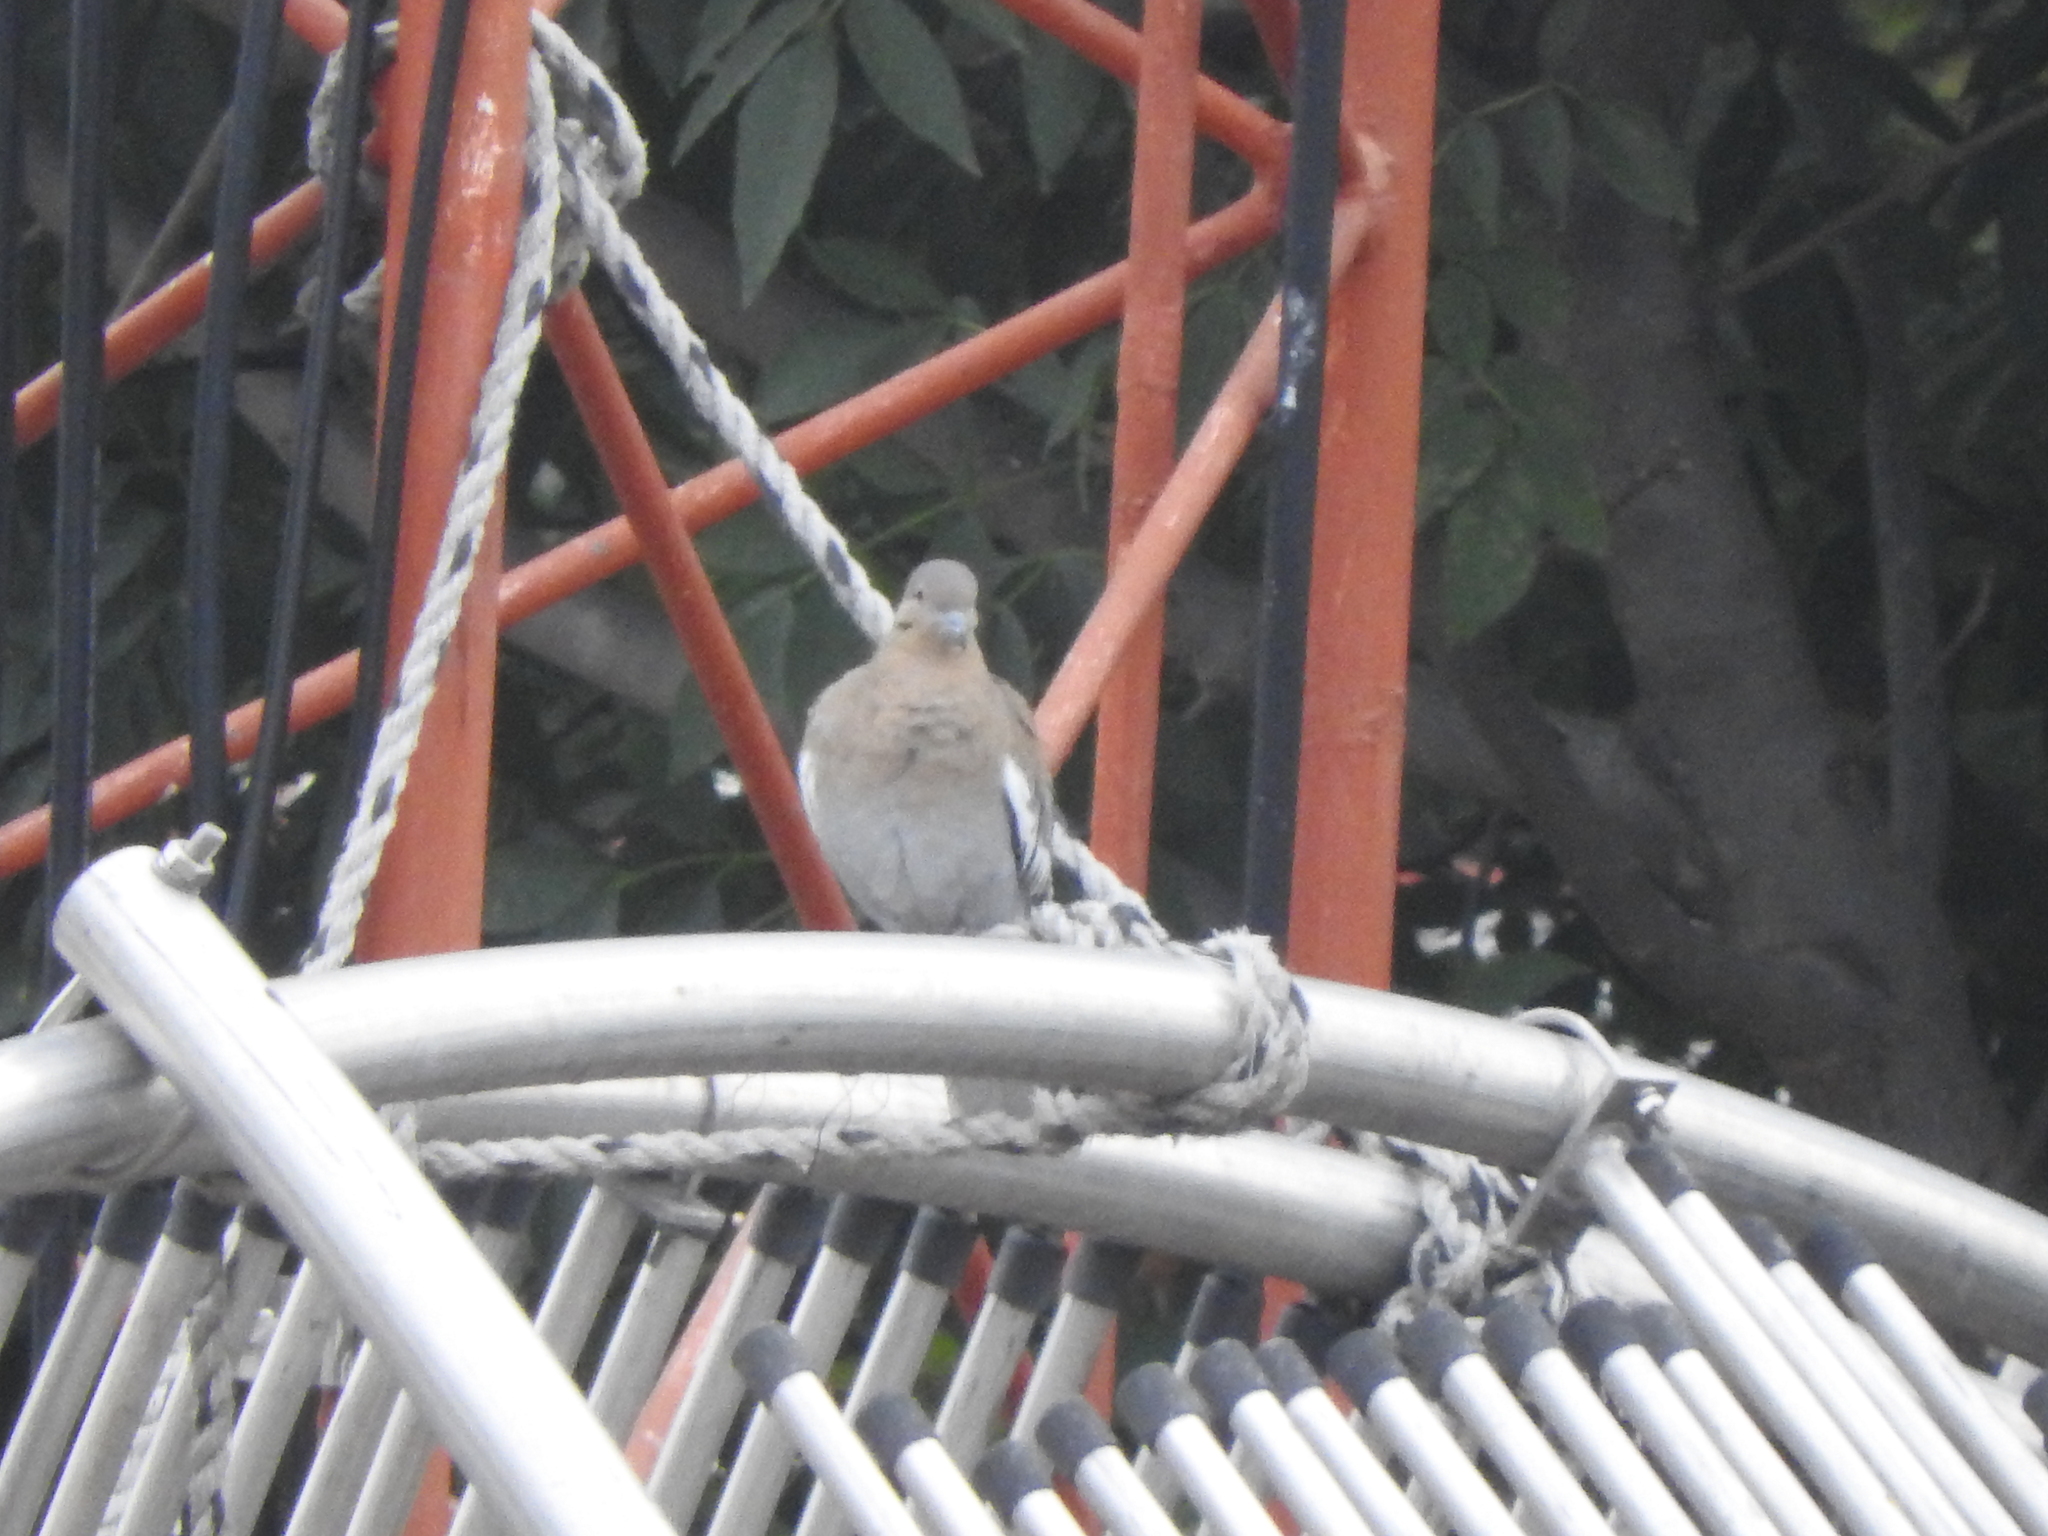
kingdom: Animalia
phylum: Chordata
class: Aves
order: Columbiformes
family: Columbidae
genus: Zenaida
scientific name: Zenaida asiatica
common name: White-winged dove
